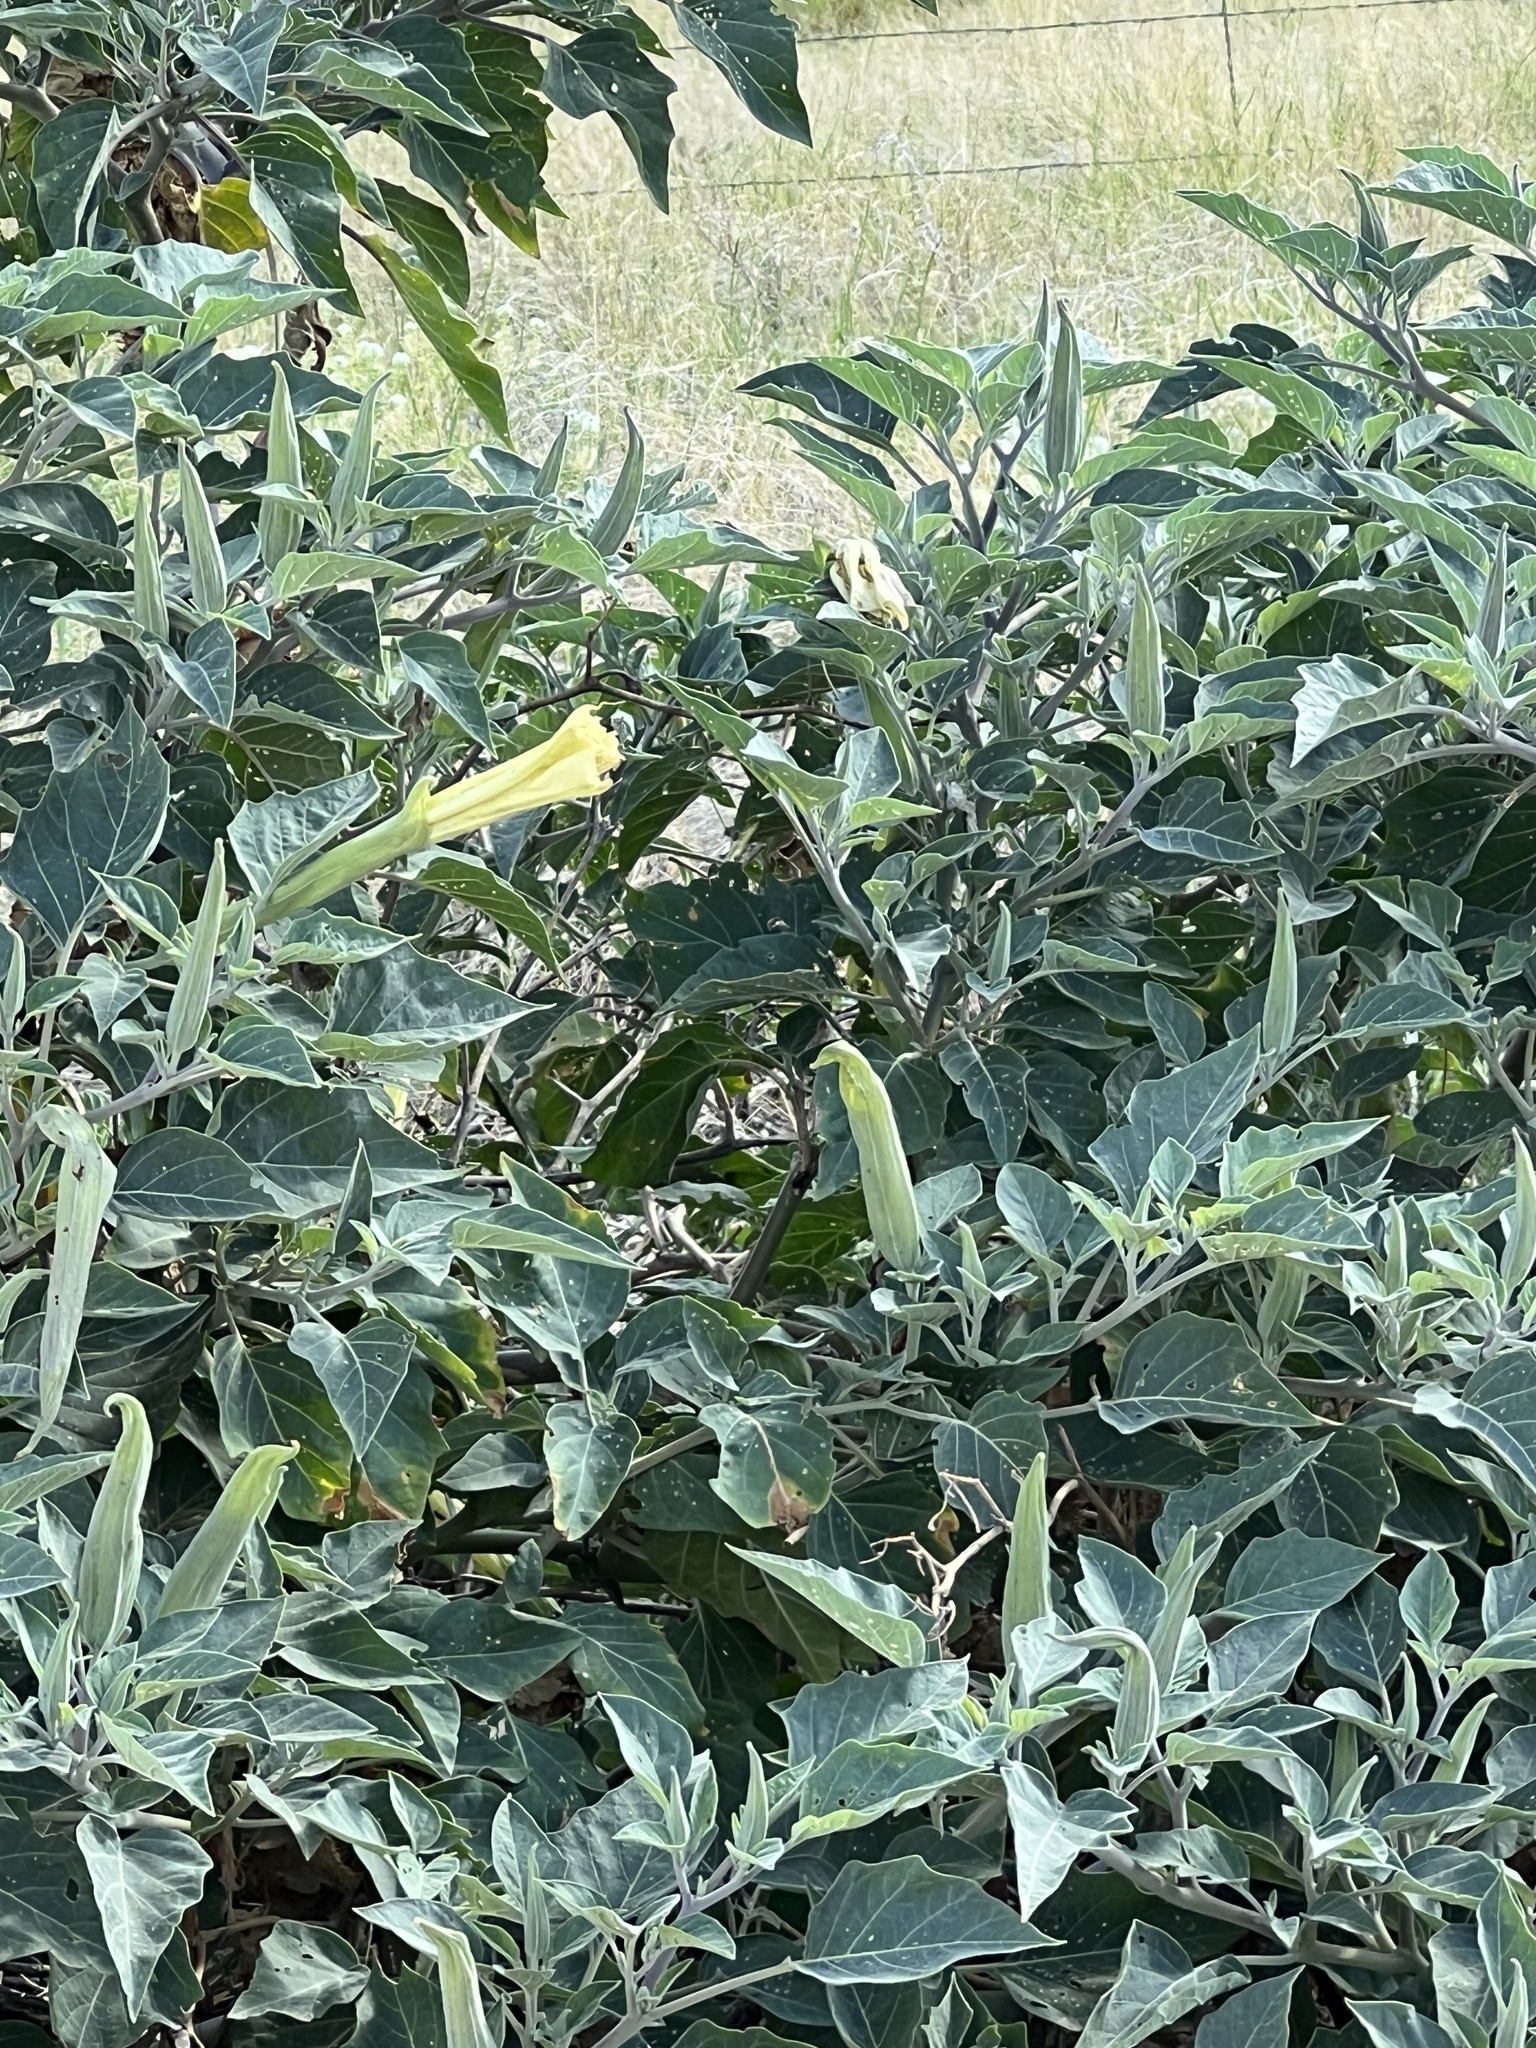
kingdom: Plantae
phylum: Tracheophyta
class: Magnoliopsida
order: Solanales
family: Solanaceae
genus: Datura
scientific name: Datura wrightii
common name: Sacred thorn-apple
